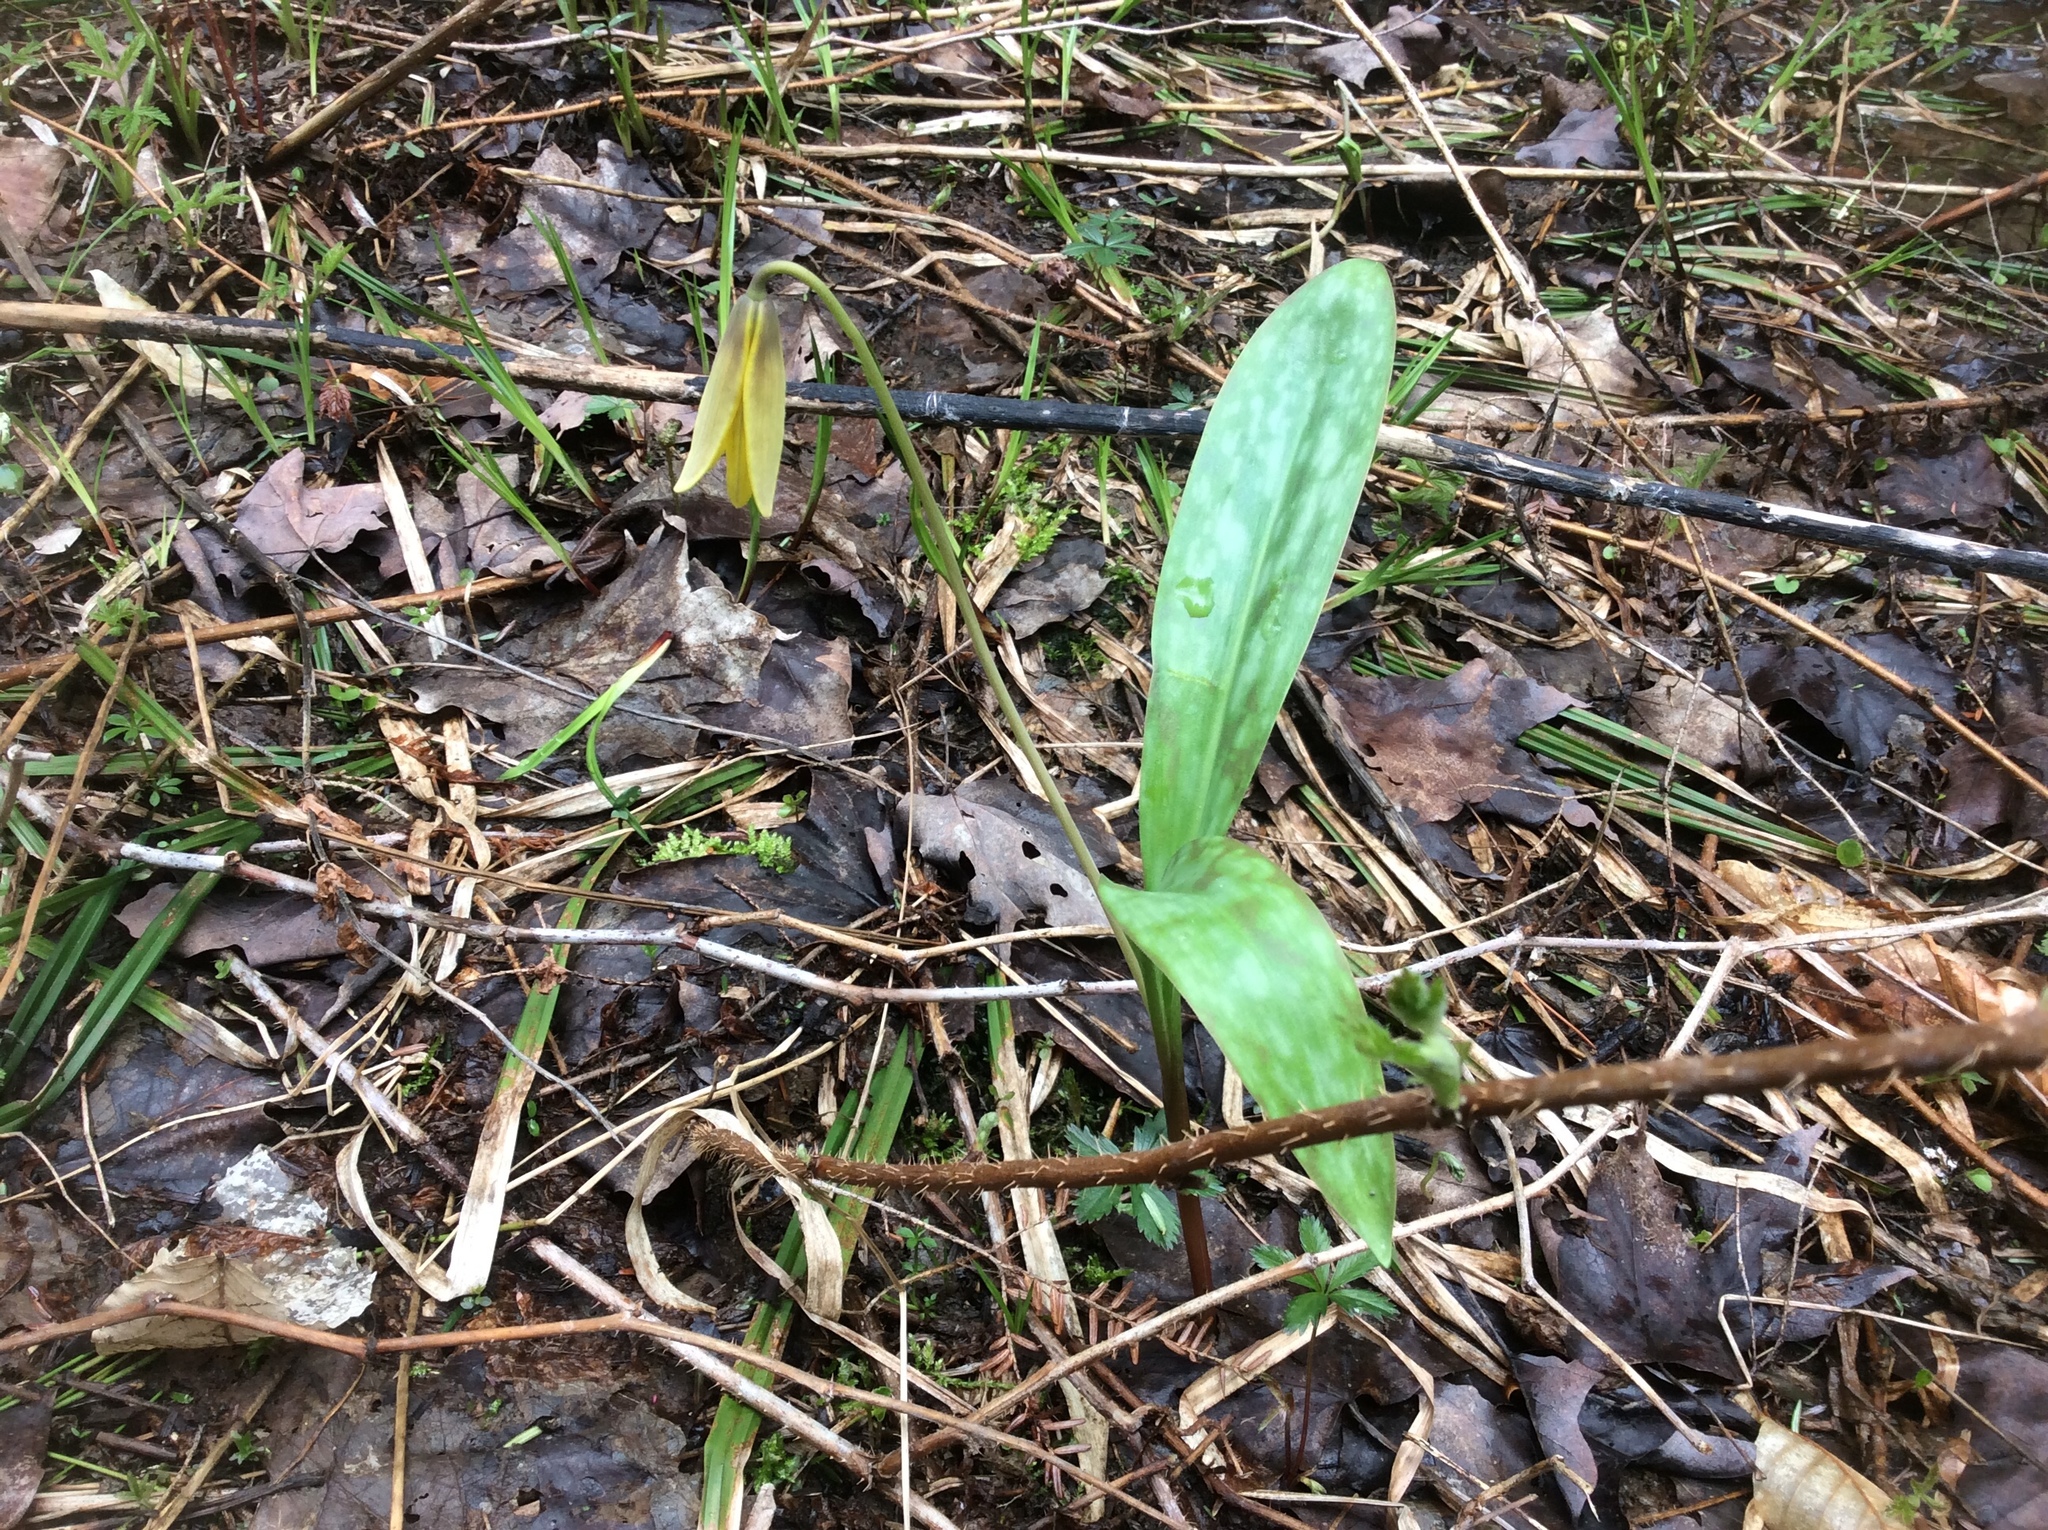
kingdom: Plantae
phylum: Tracheophyta
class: Liliopsida
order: Liliales
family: Liliaceae
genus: Erythronium
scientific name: Erythronium americanum
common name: Yellow adder's-tongue
